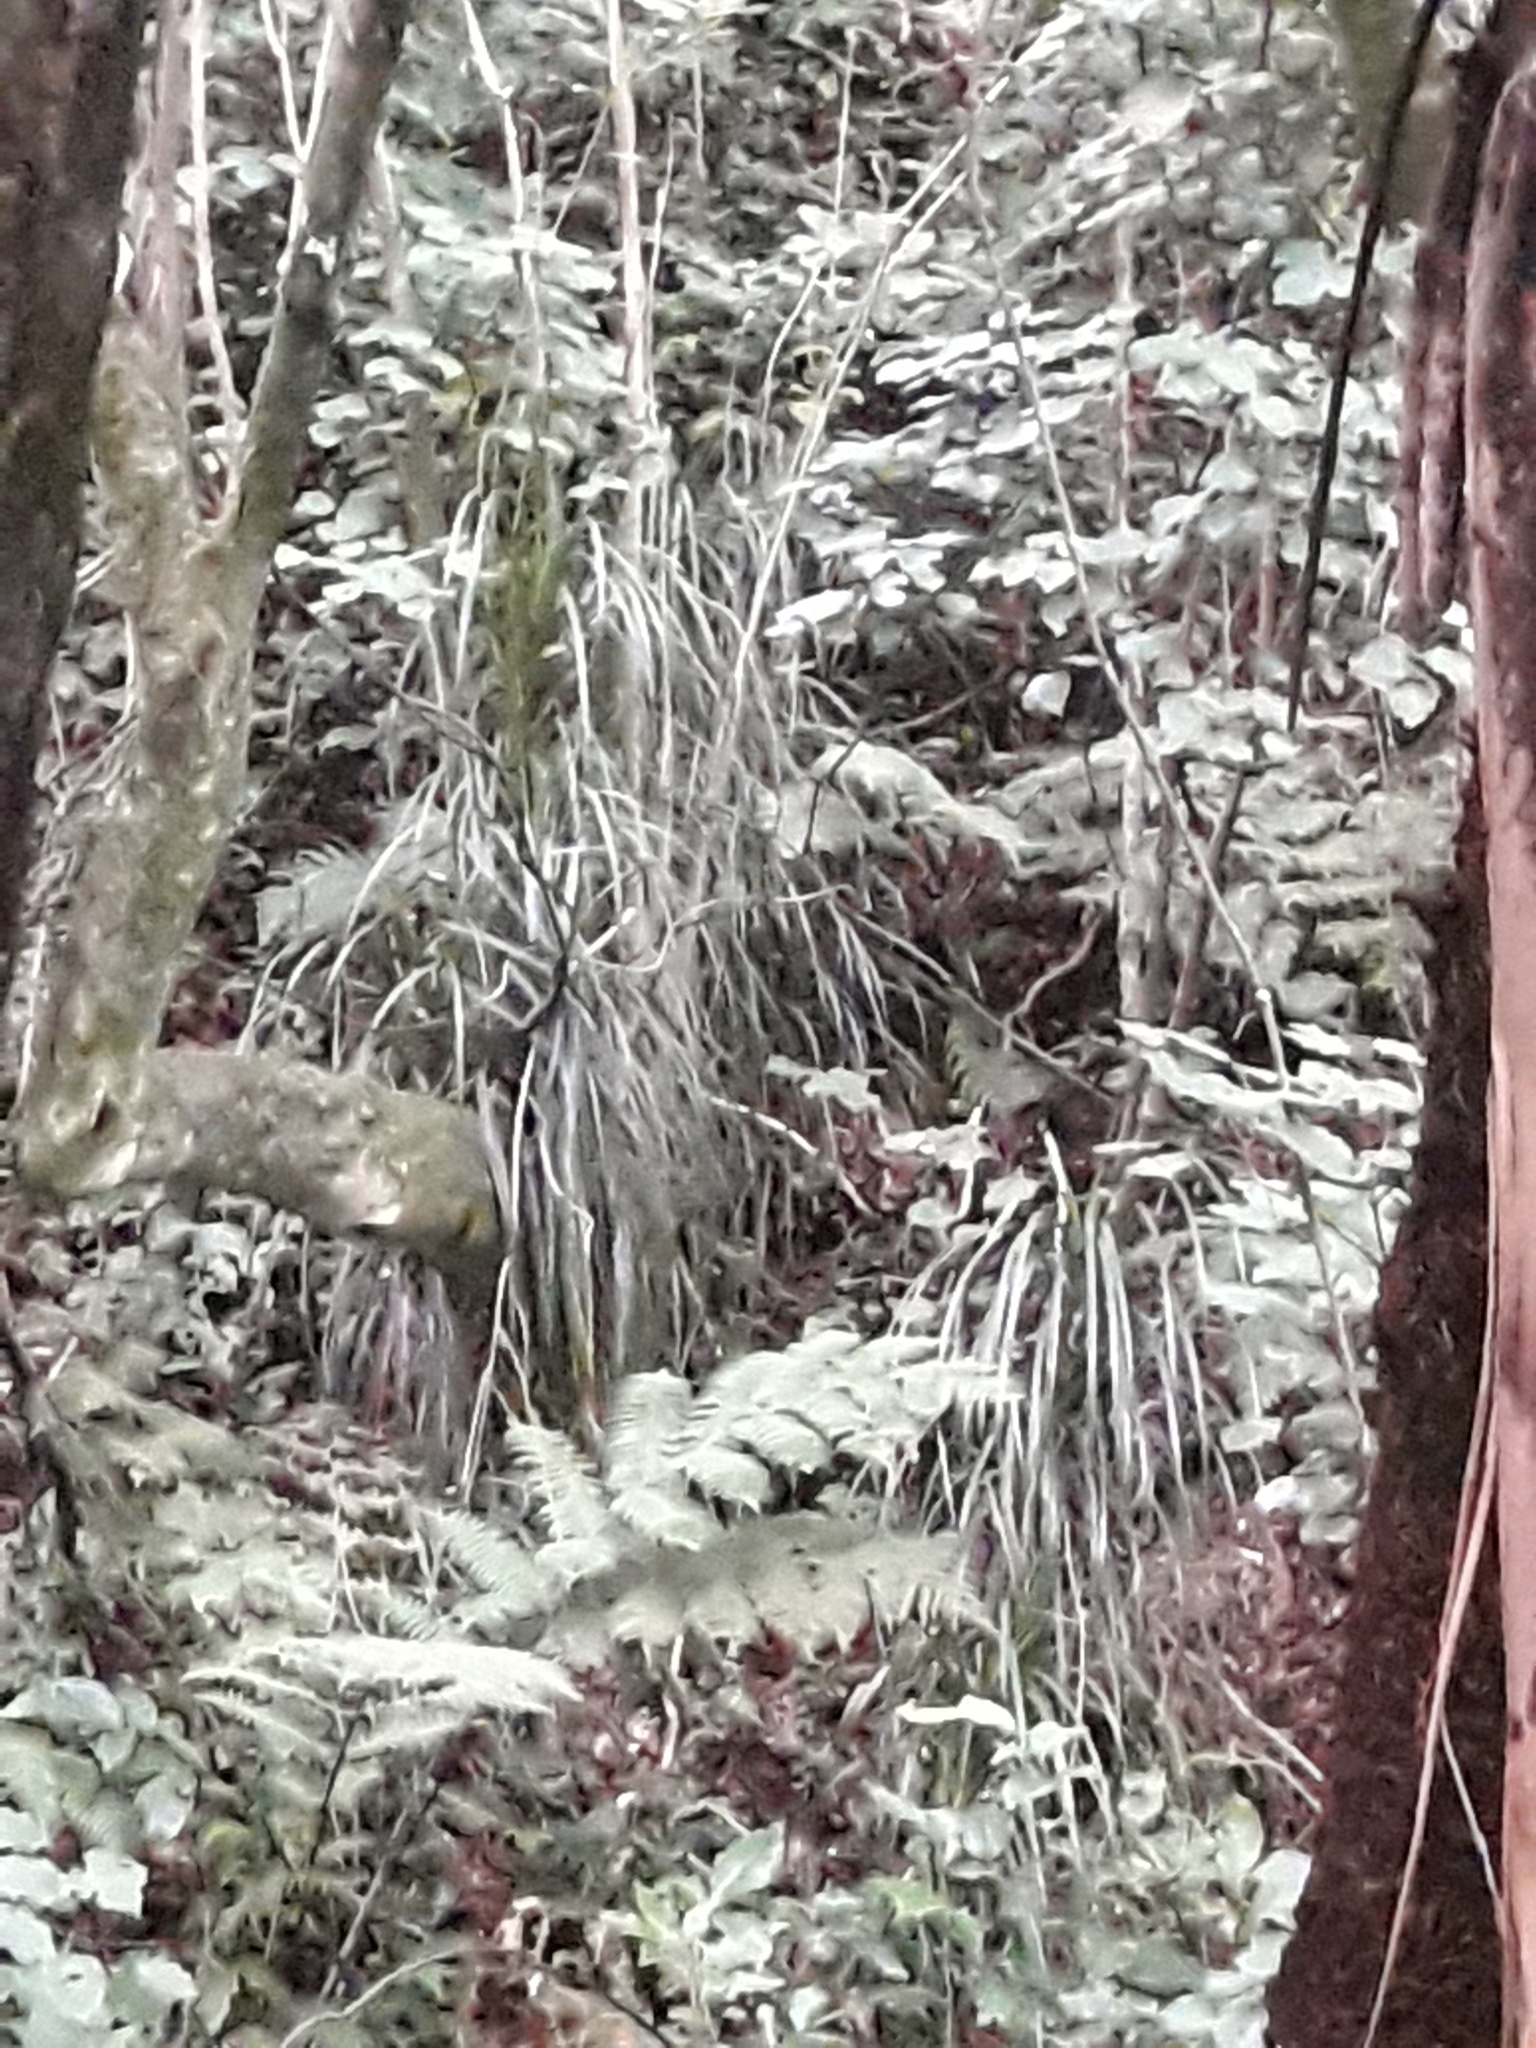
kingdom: Plantae
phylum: Tracheophyta
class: Liliopsida
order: Pandanales
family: Pandanaceae
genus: Freycinetia
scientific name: Freycinetia banksii
